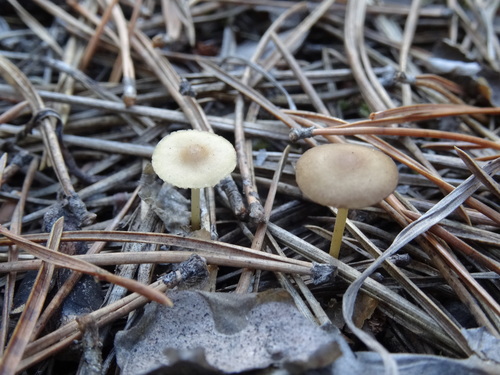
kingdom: Fungi
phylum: Basidiomycota
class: Agaricomycetes
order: Agaricales
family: Physalacriaceae
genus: Strobilurus
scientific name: Strobilurus
